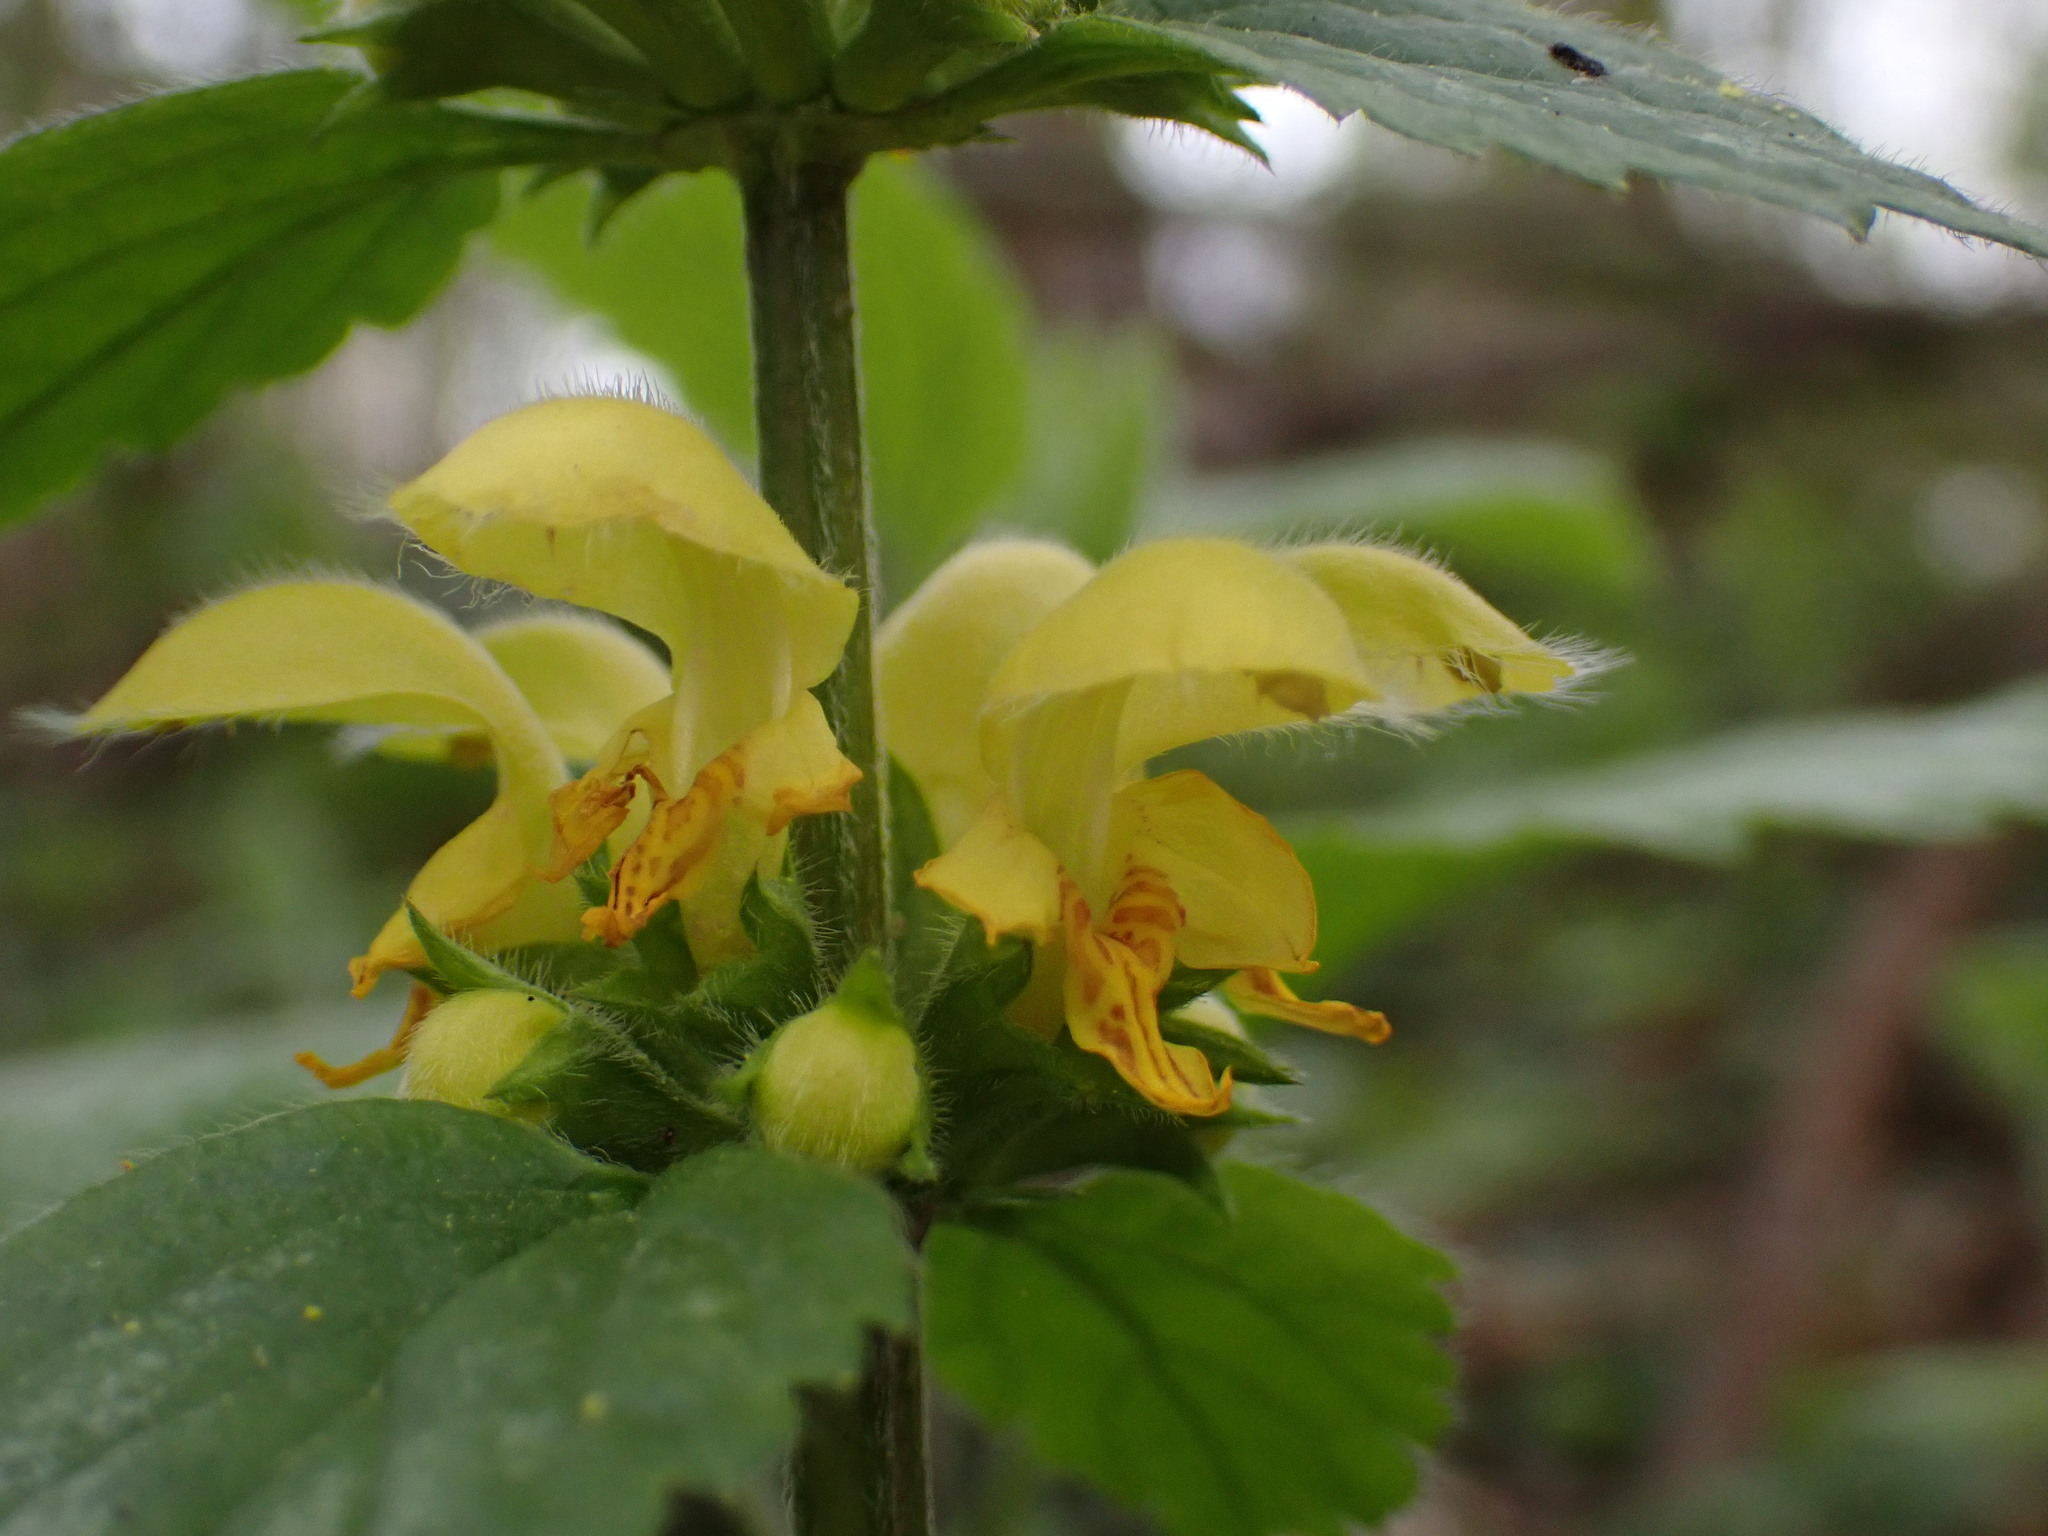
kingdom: Plantae
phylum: Tracheophyta
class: Magnoliopsida
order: Lamiales
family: Lamiaceae
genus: Lamium
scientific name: Lamium galeobdolon
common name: Yellow archangel
